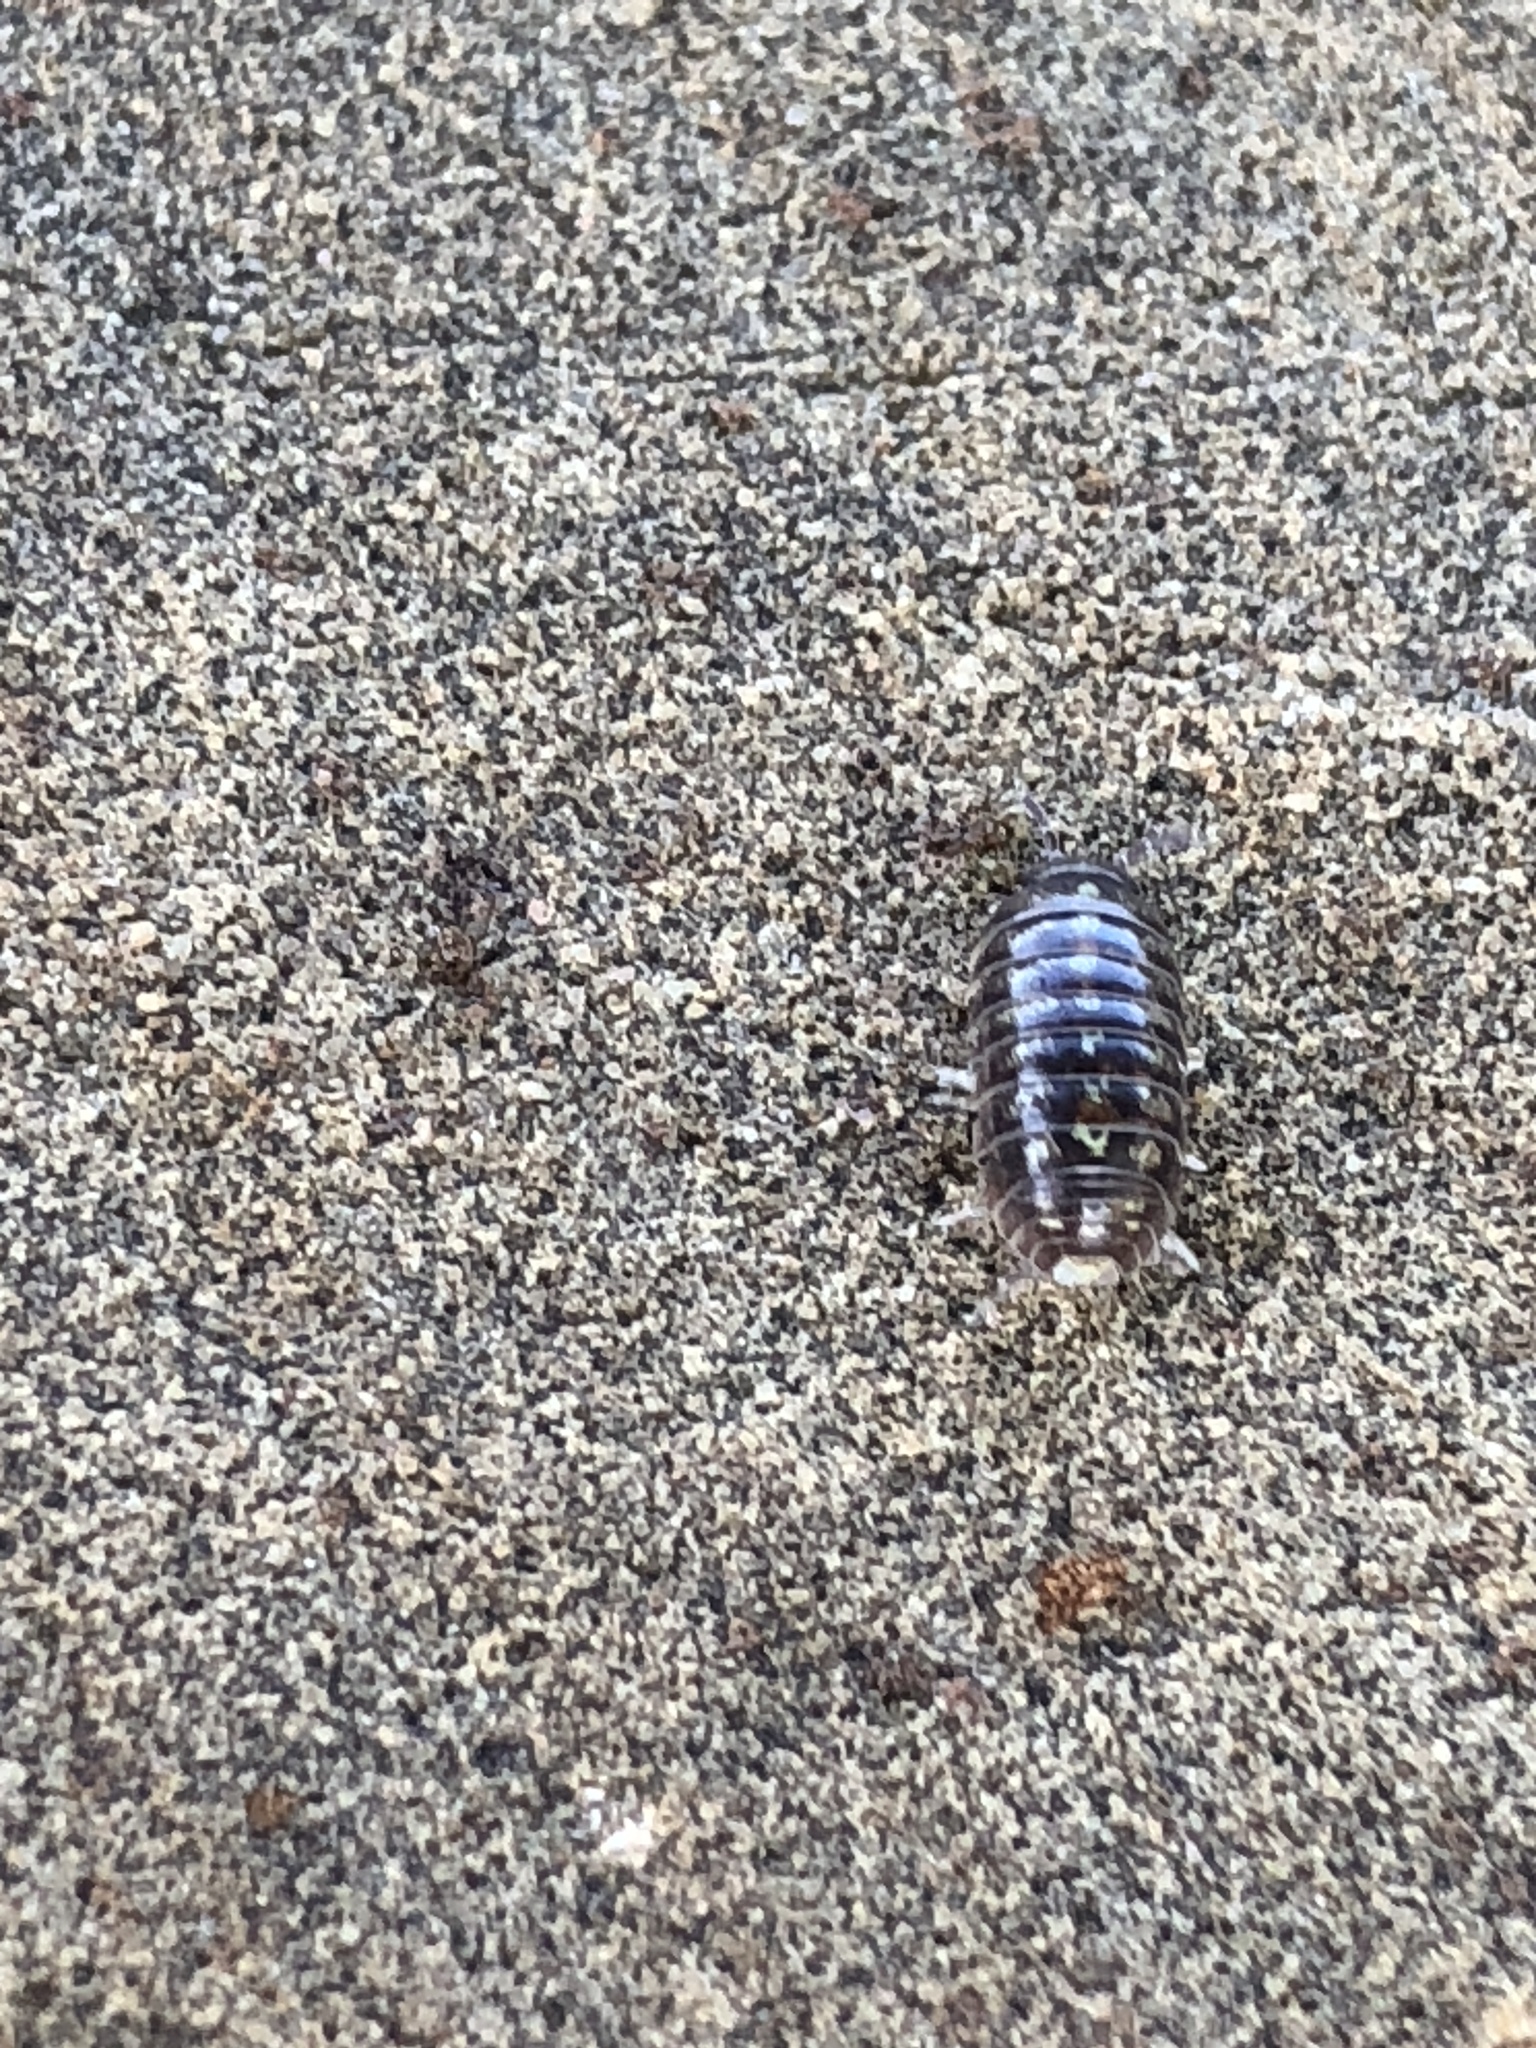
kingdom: Animalia
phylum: Arthropoda
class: Malacostraca
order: Isopoda
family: Armadillidiidae
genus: Armadillidium
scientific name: Armadillidium vulgare
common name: Common pill woodlouse
